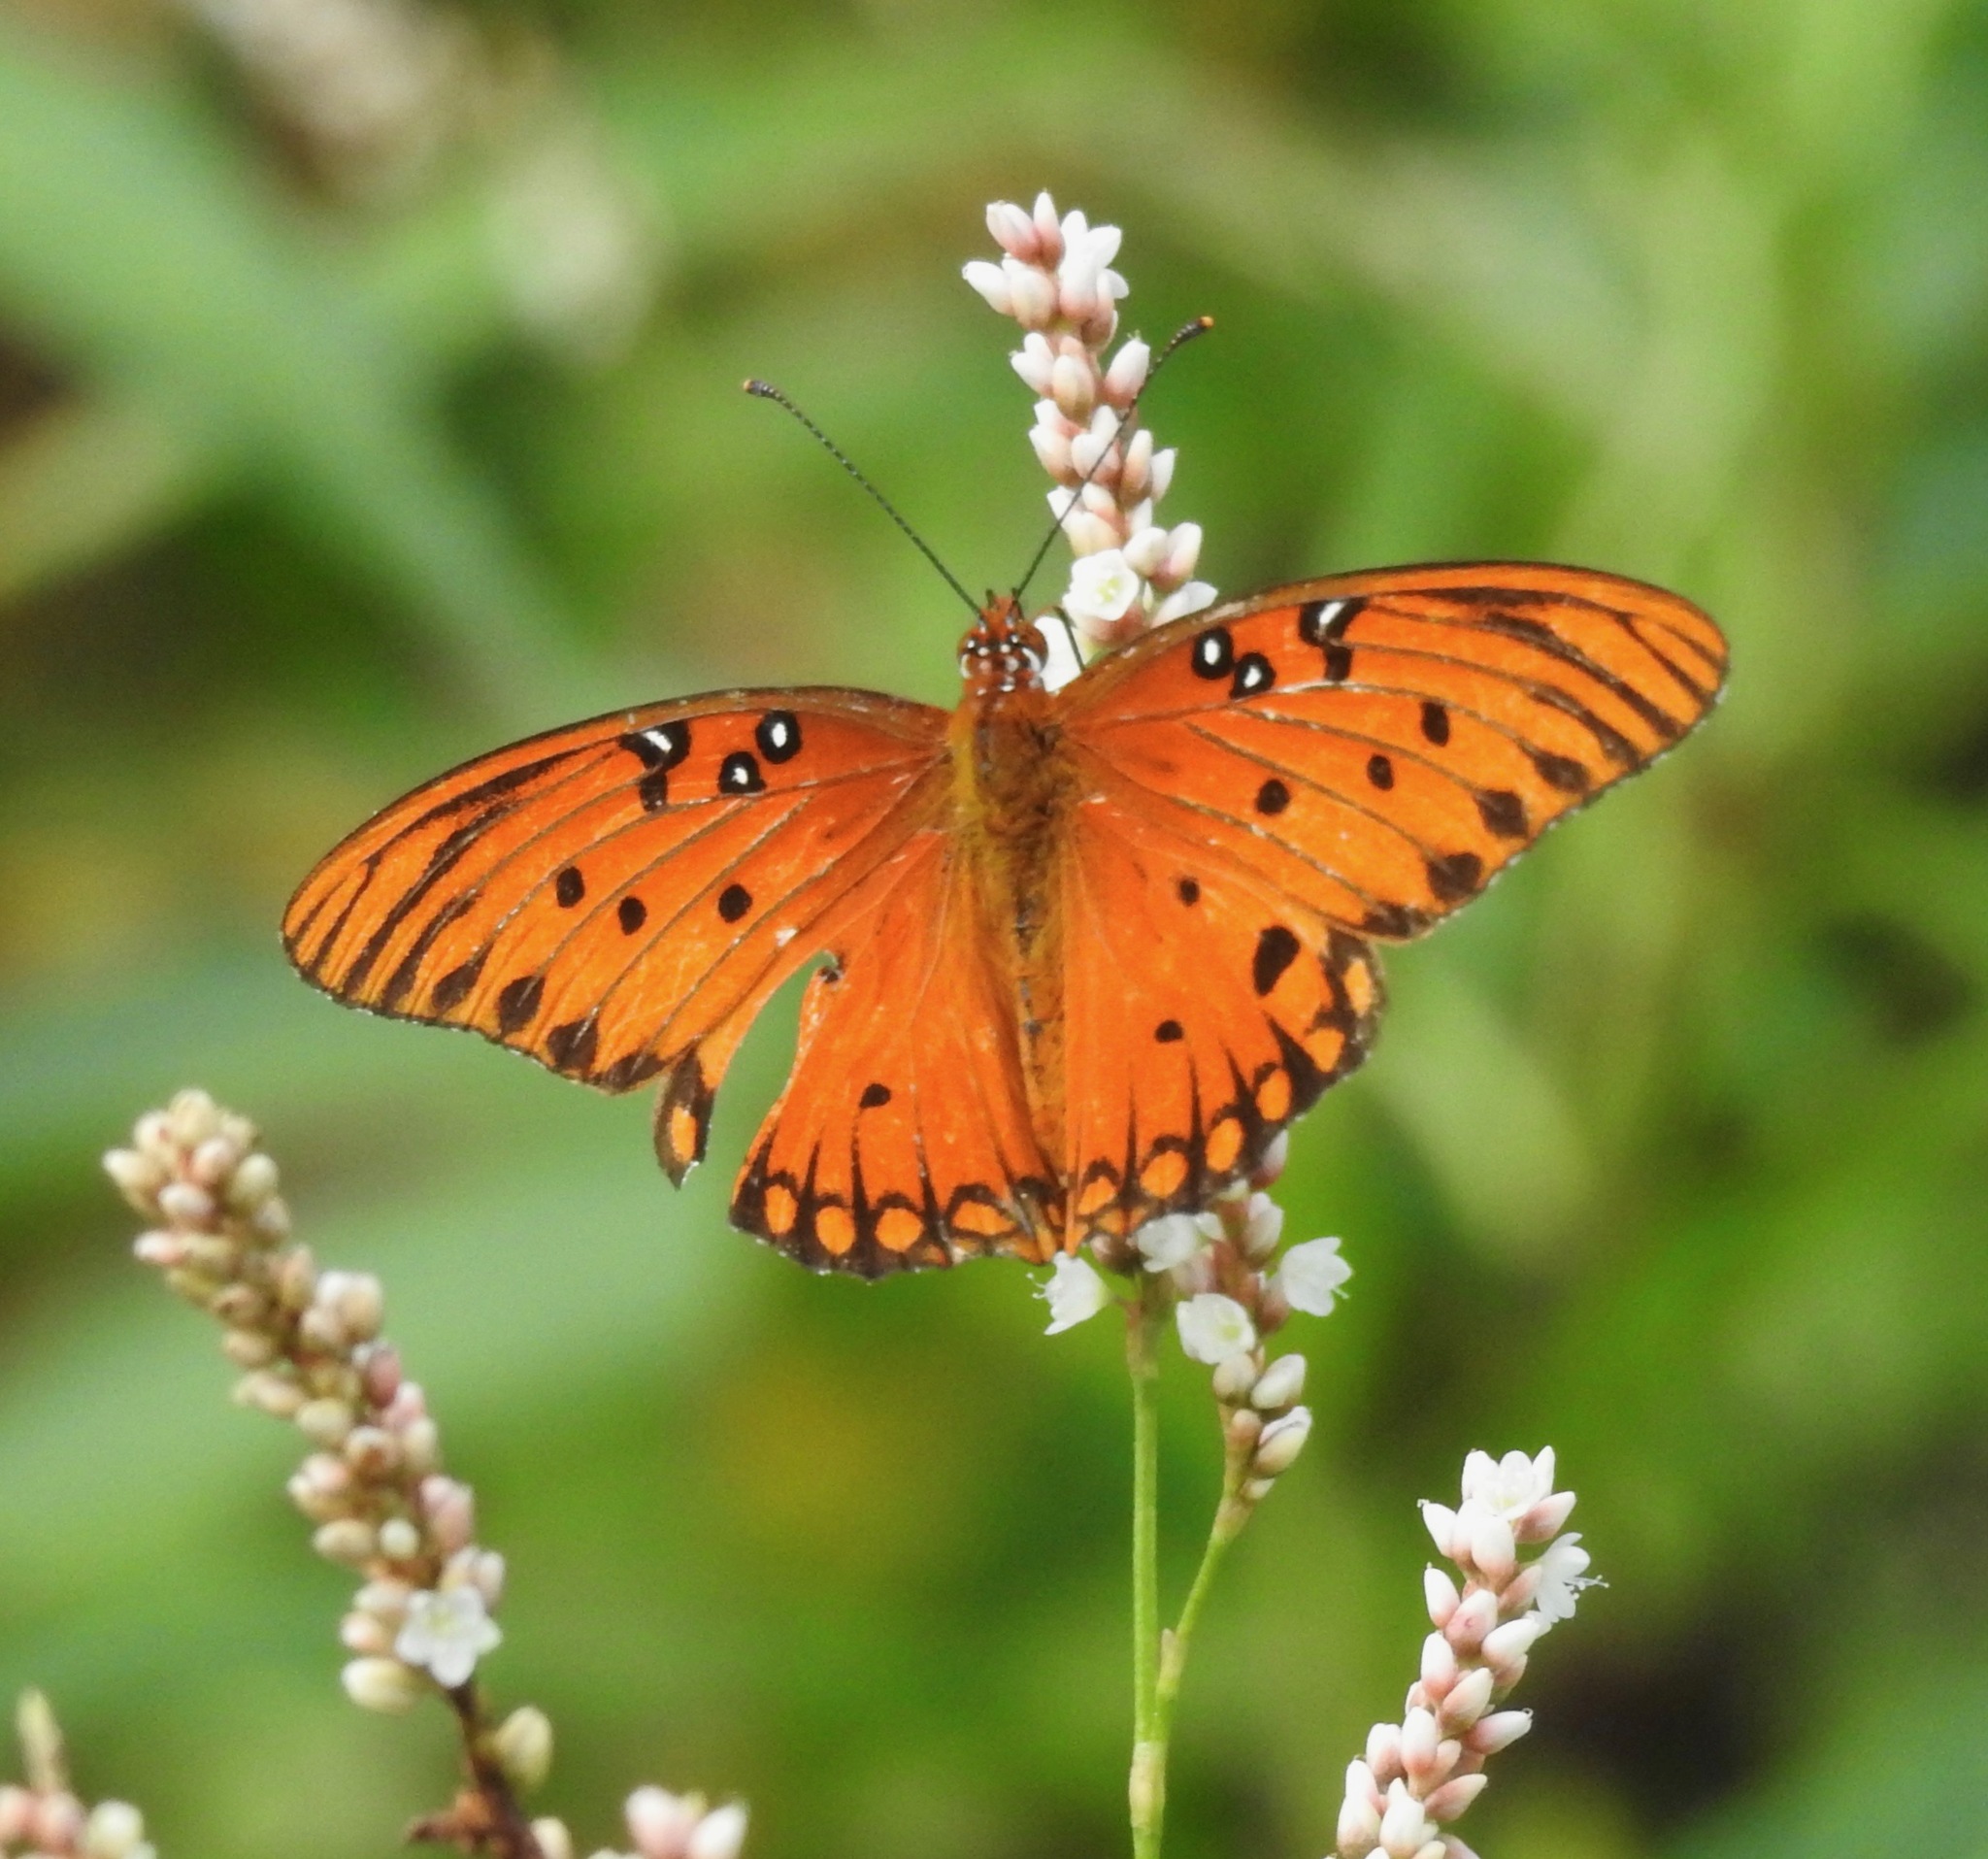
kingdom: Animalia
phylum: Arthropoda
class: Insecta
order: Lepidoptera
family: Nymphalidae
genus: Dione
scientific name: Dione vanillae
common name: Gulf fritillary
